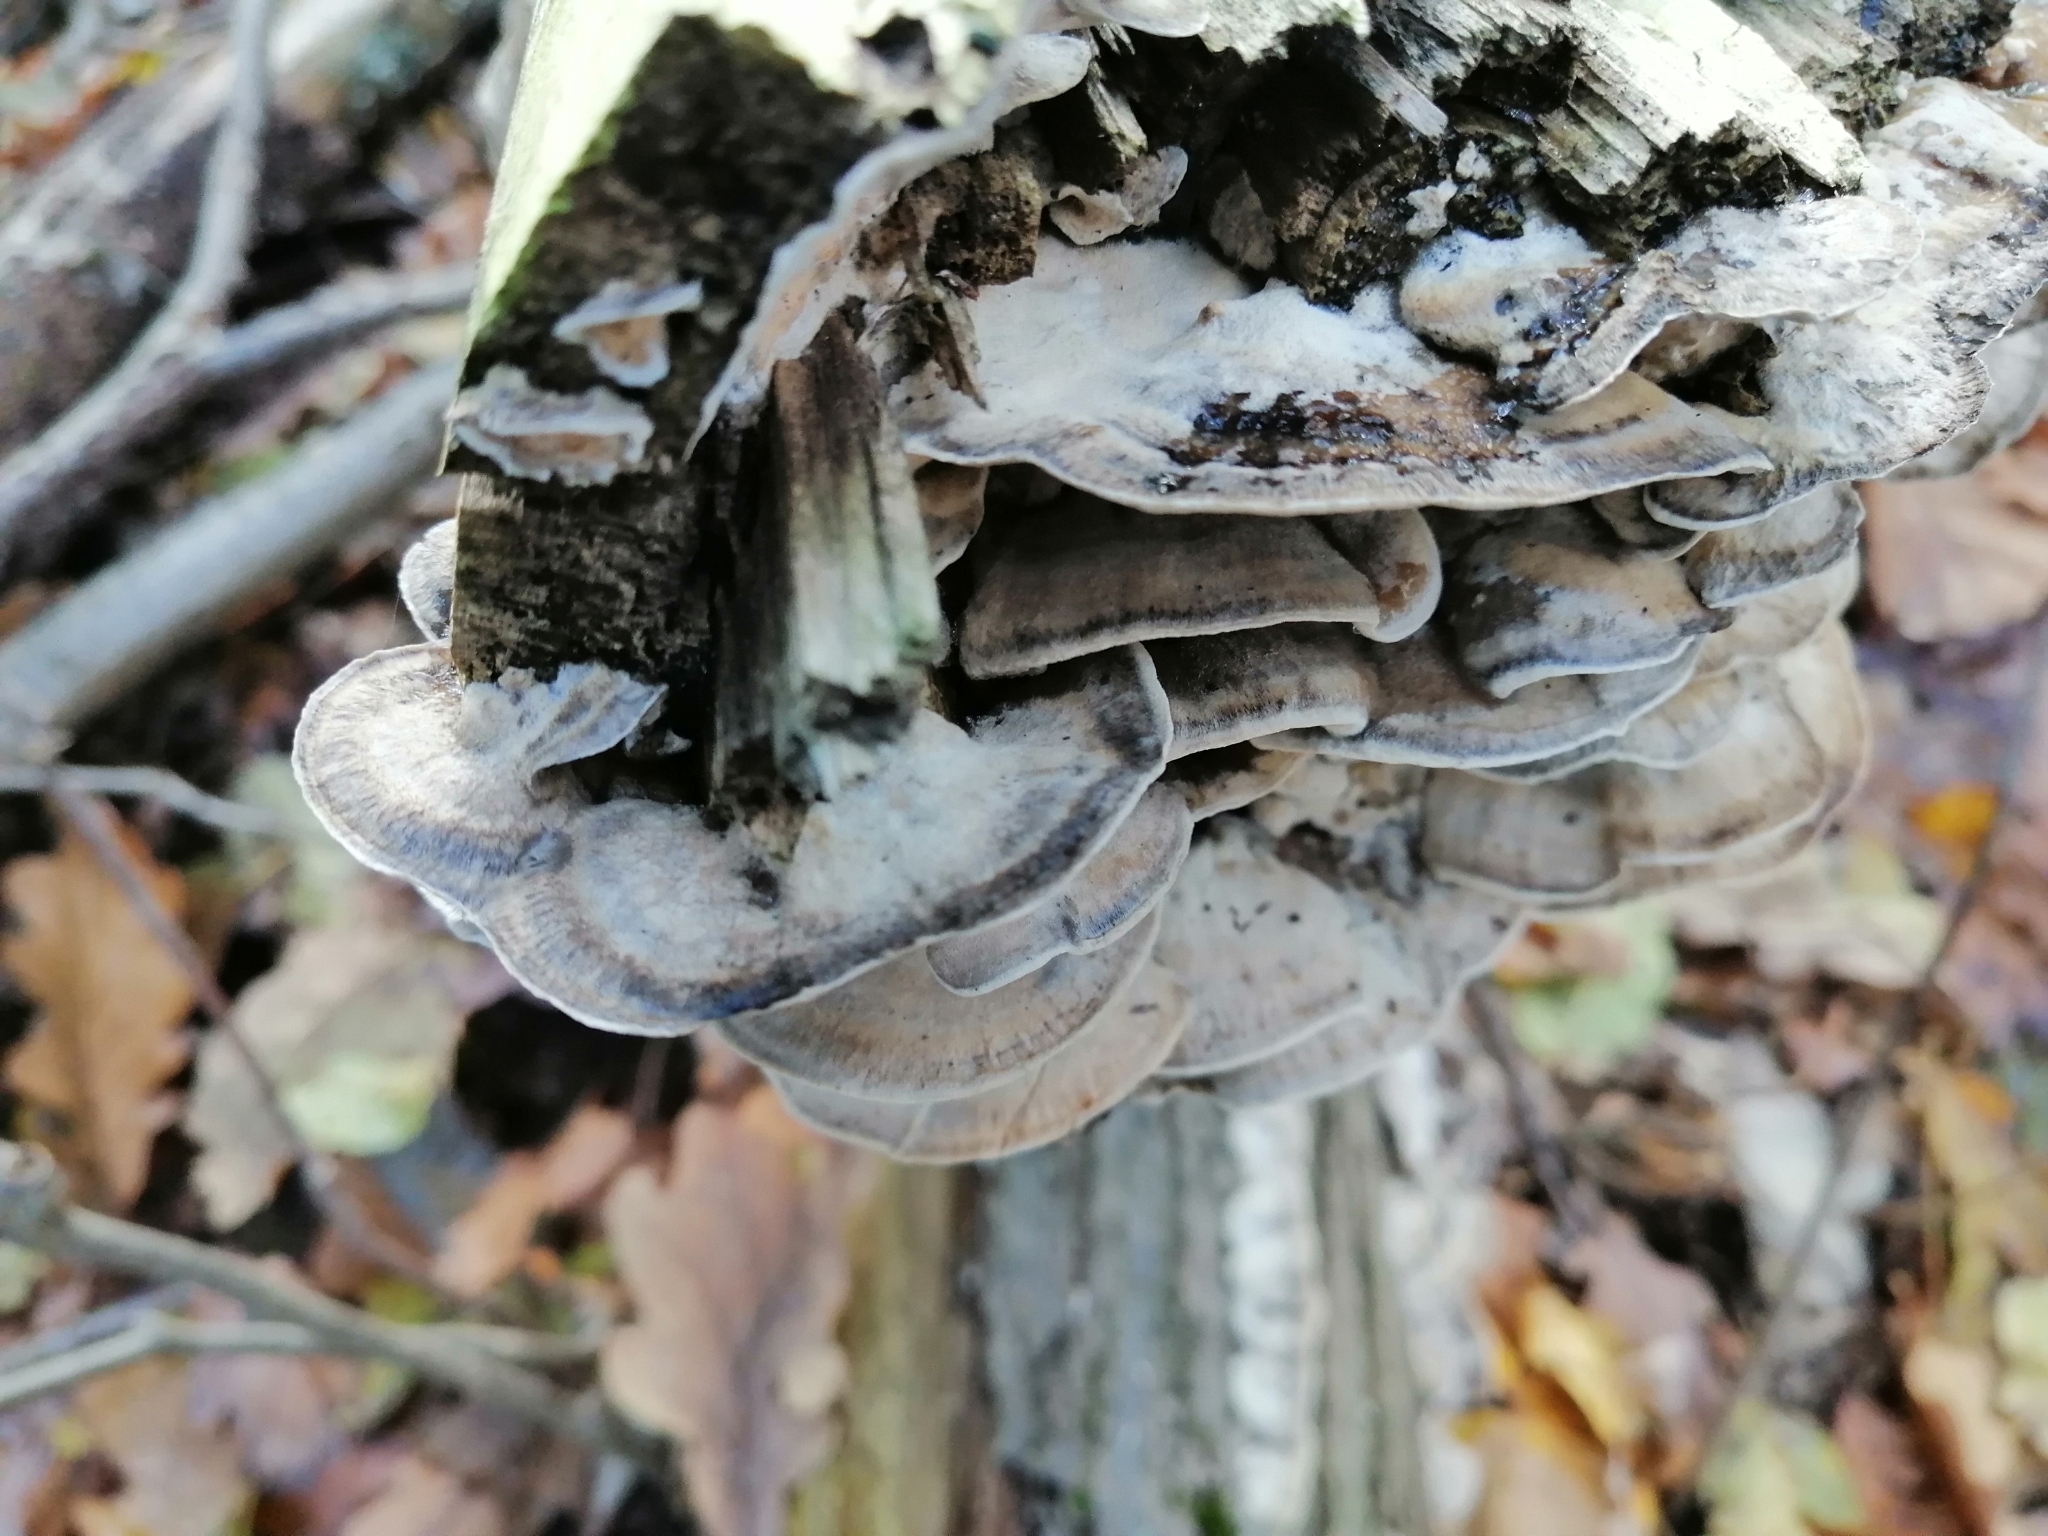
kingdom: Fungi
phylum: Basidiomycota
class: Agaricomycetes
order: Polyporales
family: Phanerochaetaceae
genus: Bjerkandera
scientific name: Bjerkandera adusta
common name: Smoky bracket
